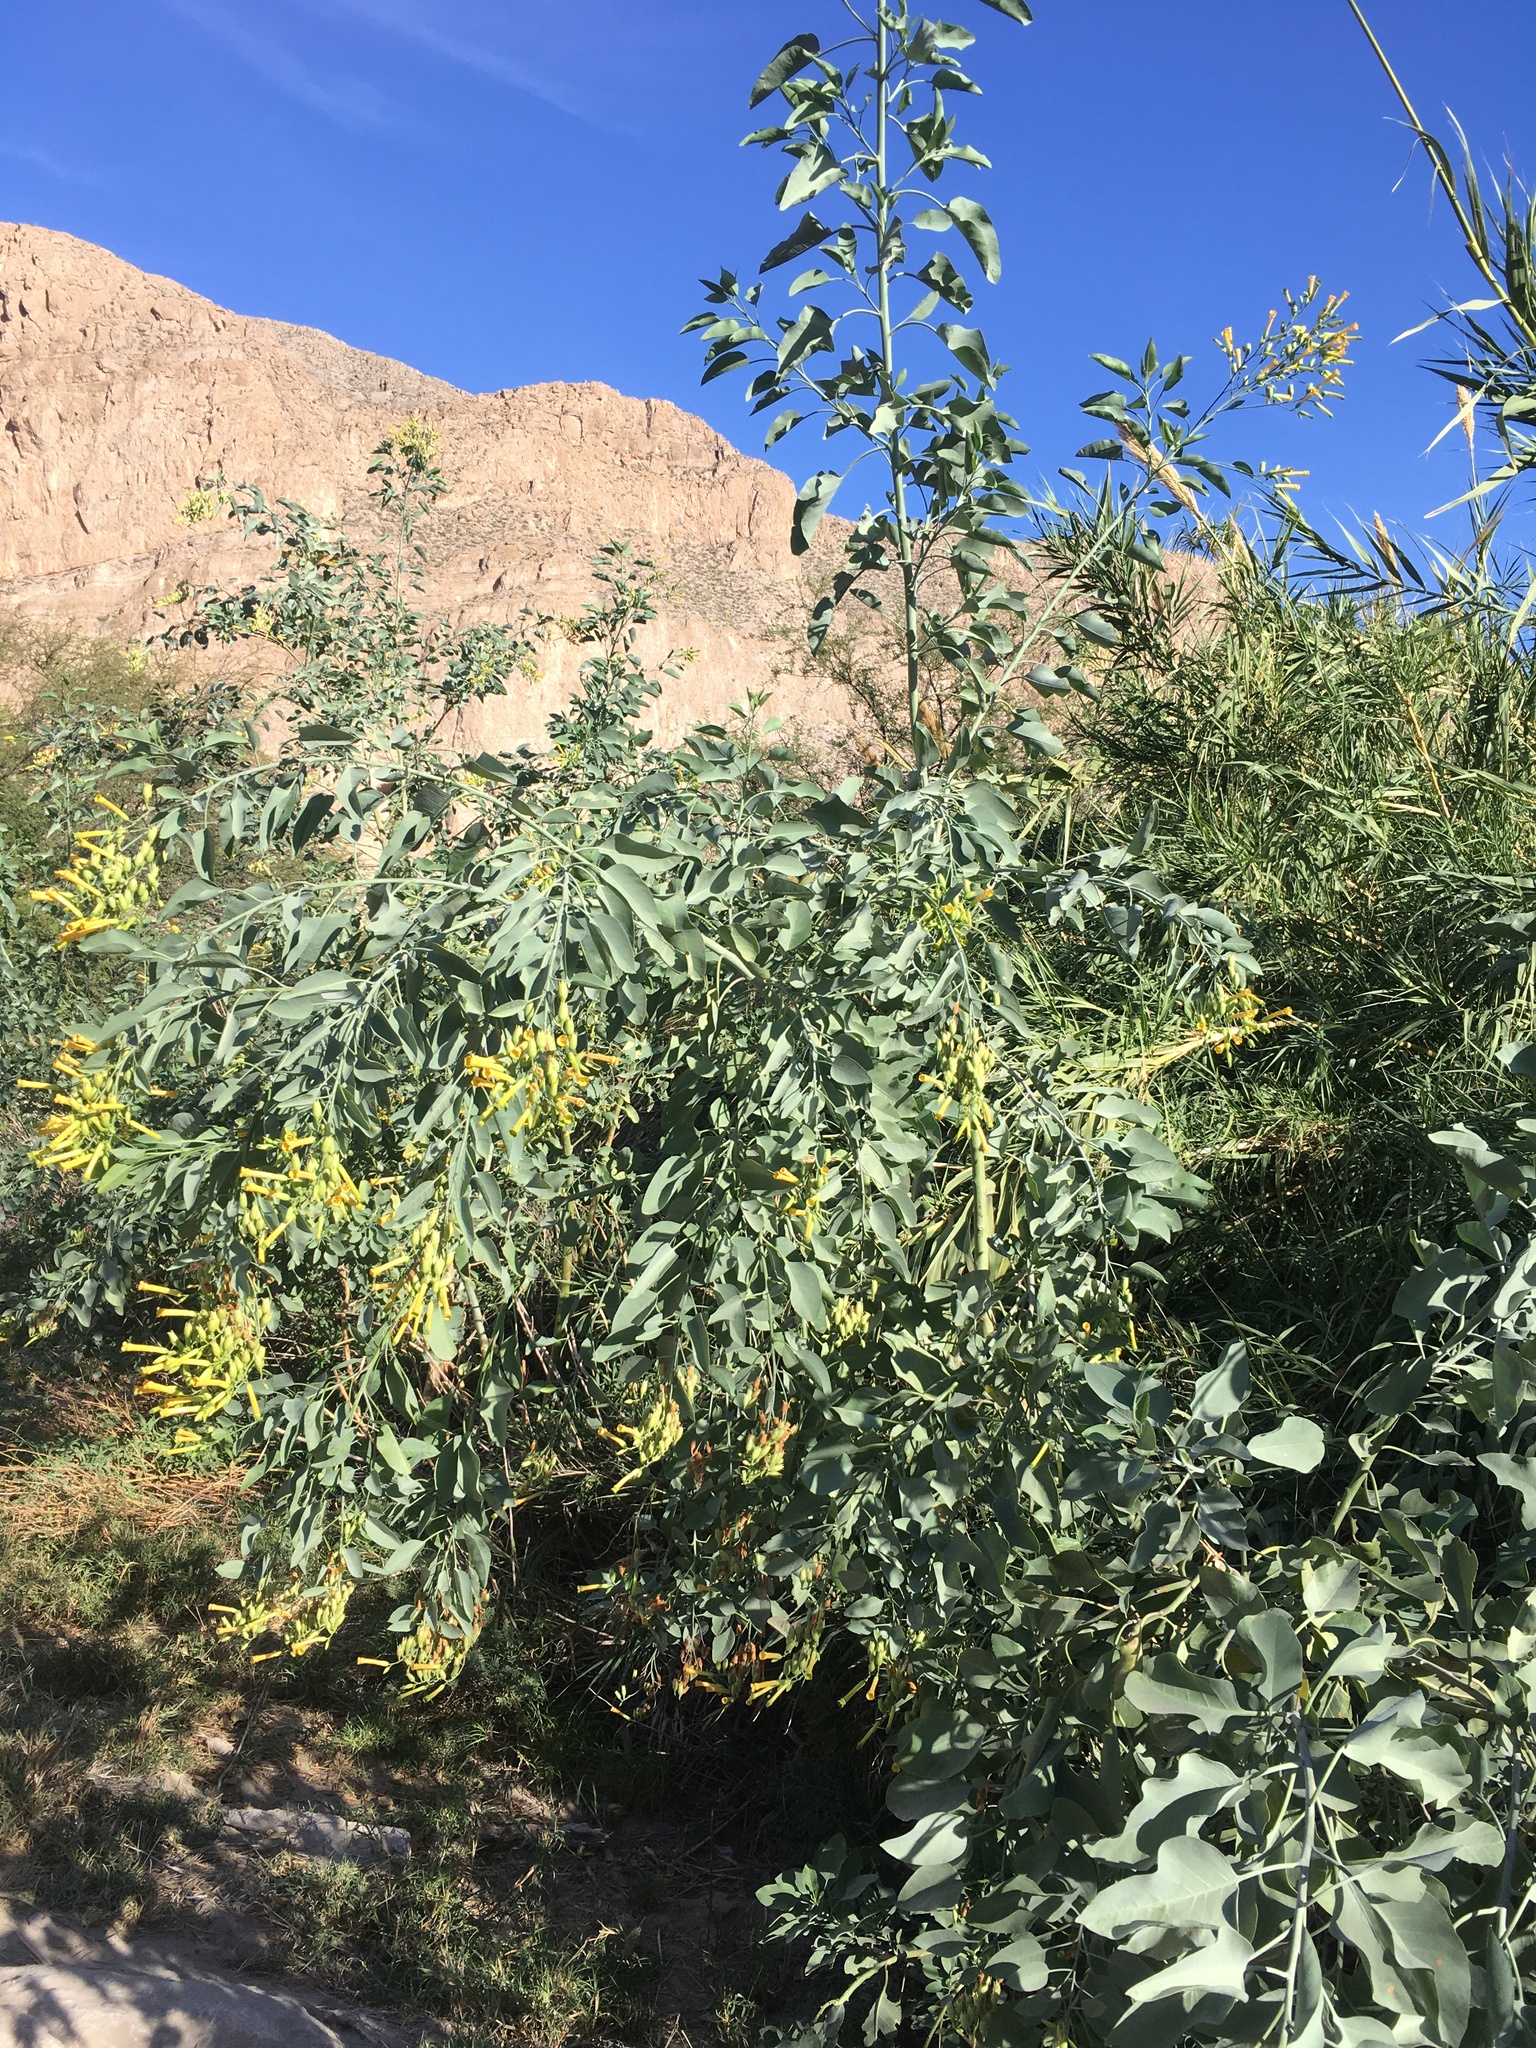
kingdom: Plantae
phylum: Tracheophyta
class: Magnoliopsida
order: Solanales
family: Solanaceae
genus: Nicotiana
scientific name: Nicotiana glauca
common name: Tree tobacco
